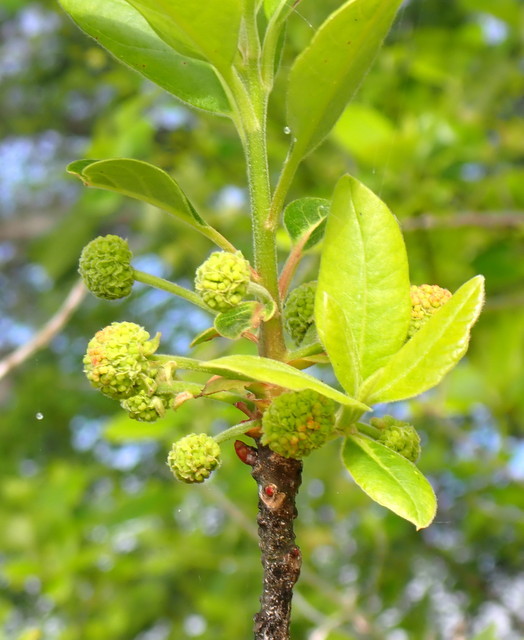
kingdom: Plantae
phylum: Tracheophyta
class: Magnoliopsida
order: Cornales
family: Nyssaceae
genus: Nyssa
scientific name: Nyssa ogeche
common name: Ogeechee tupelo
